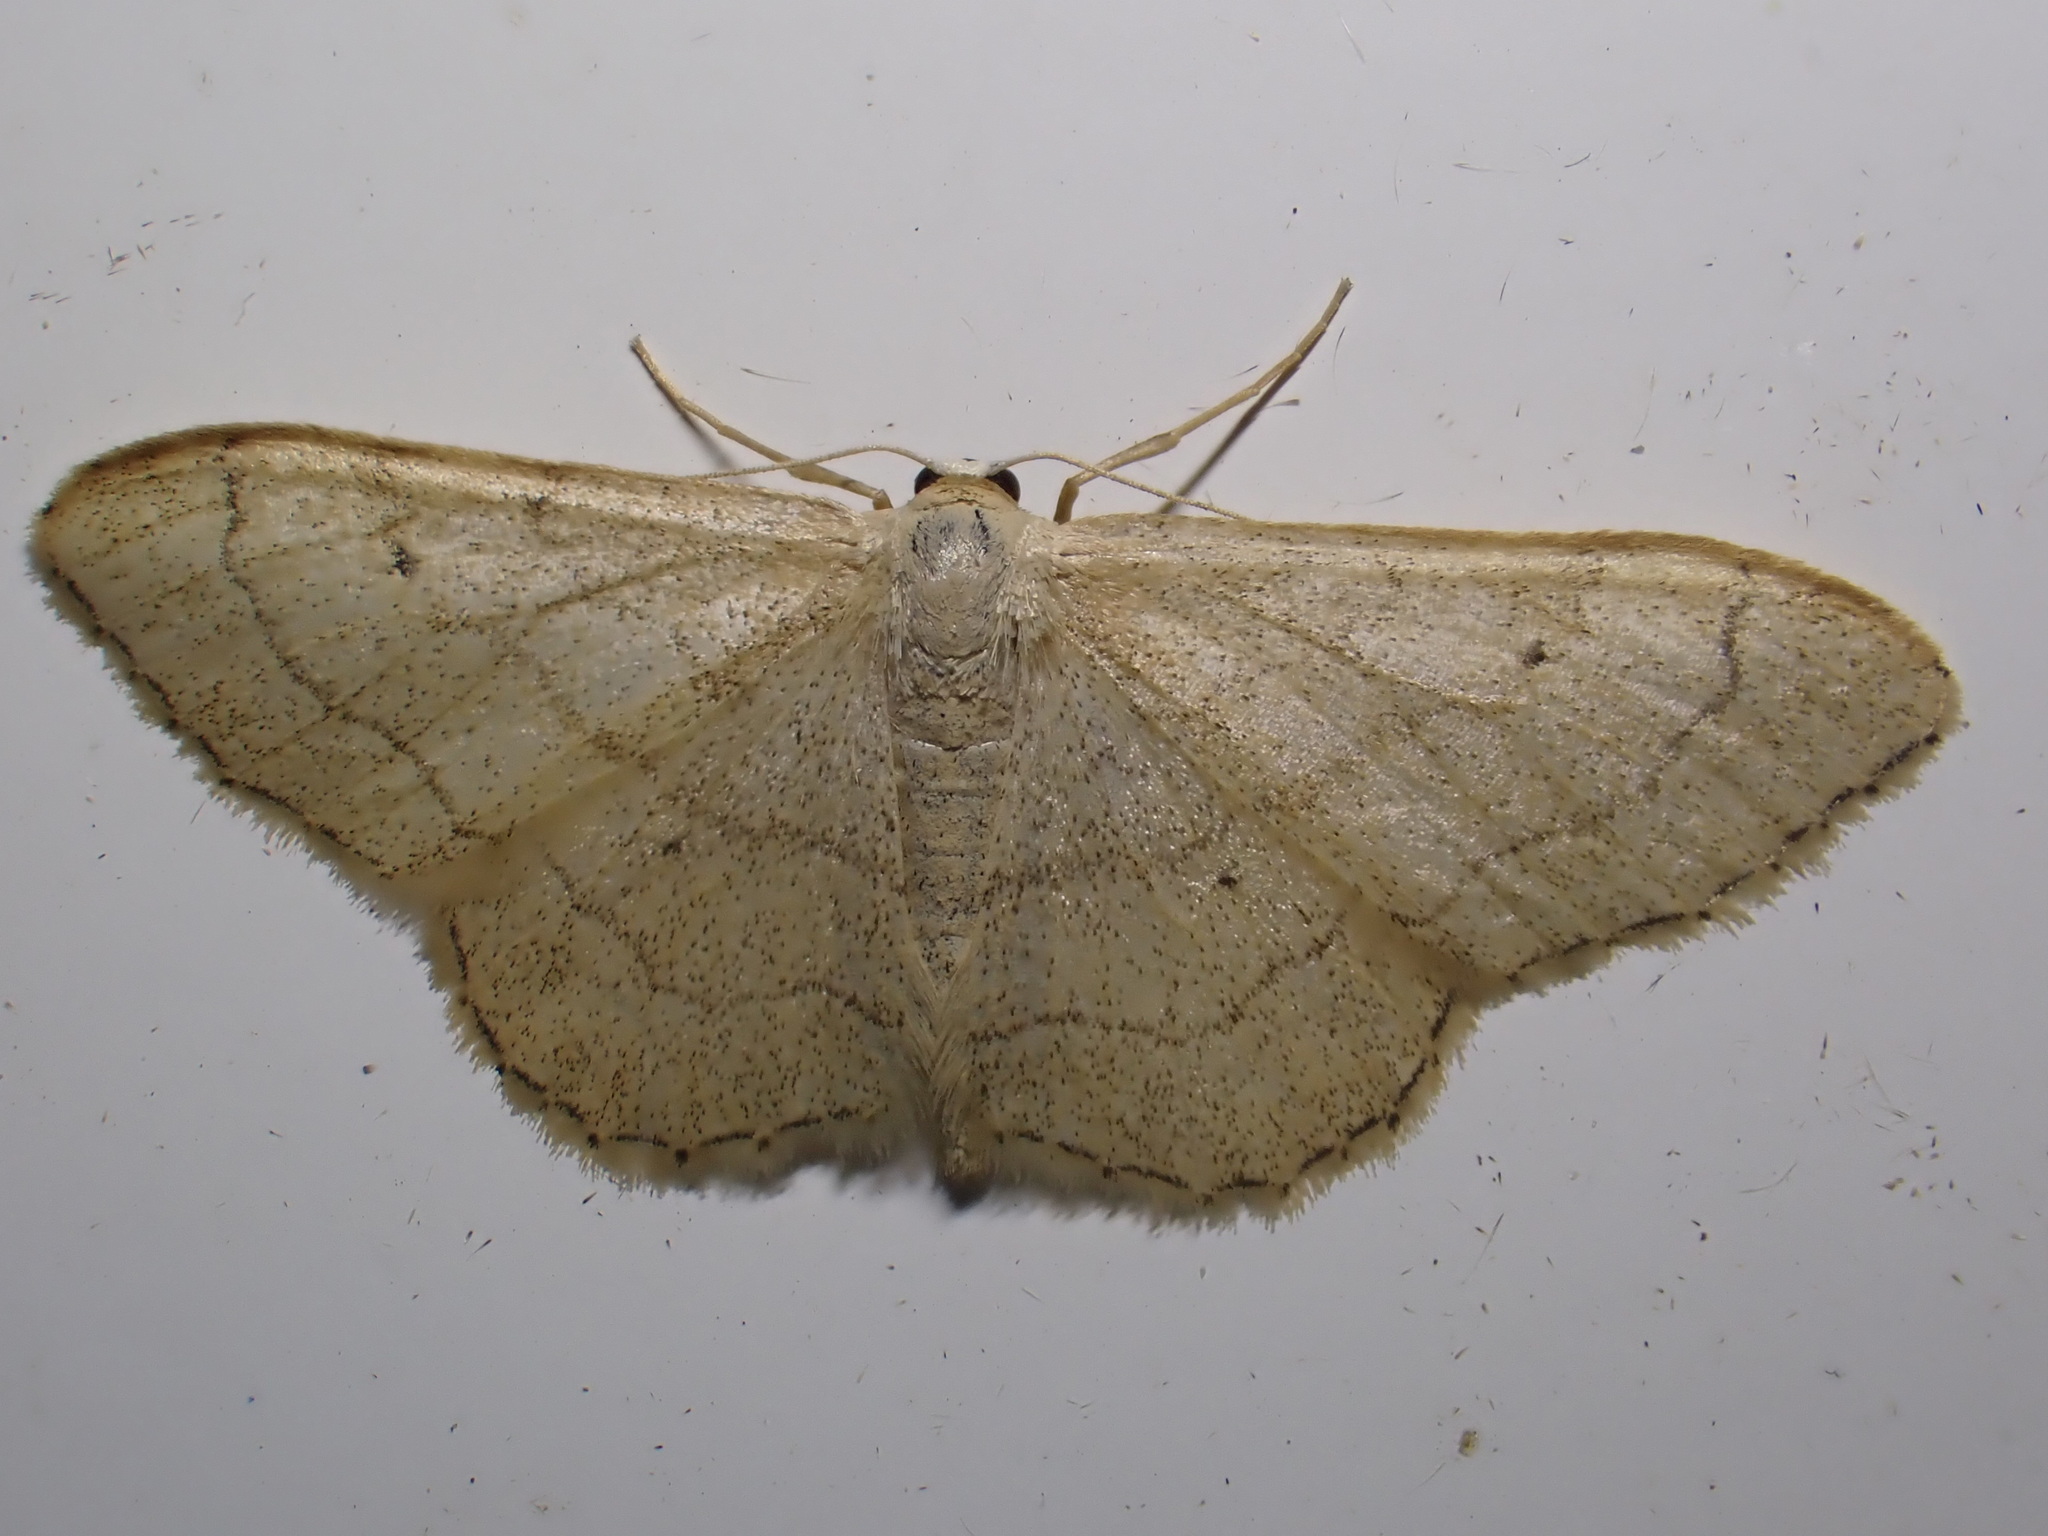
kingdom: Animalia
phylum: Arthropoda
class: Insecta
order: Lepidoptera
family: Geometridae
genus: Idaea
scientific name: Idaea aversata
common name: Riband wave
